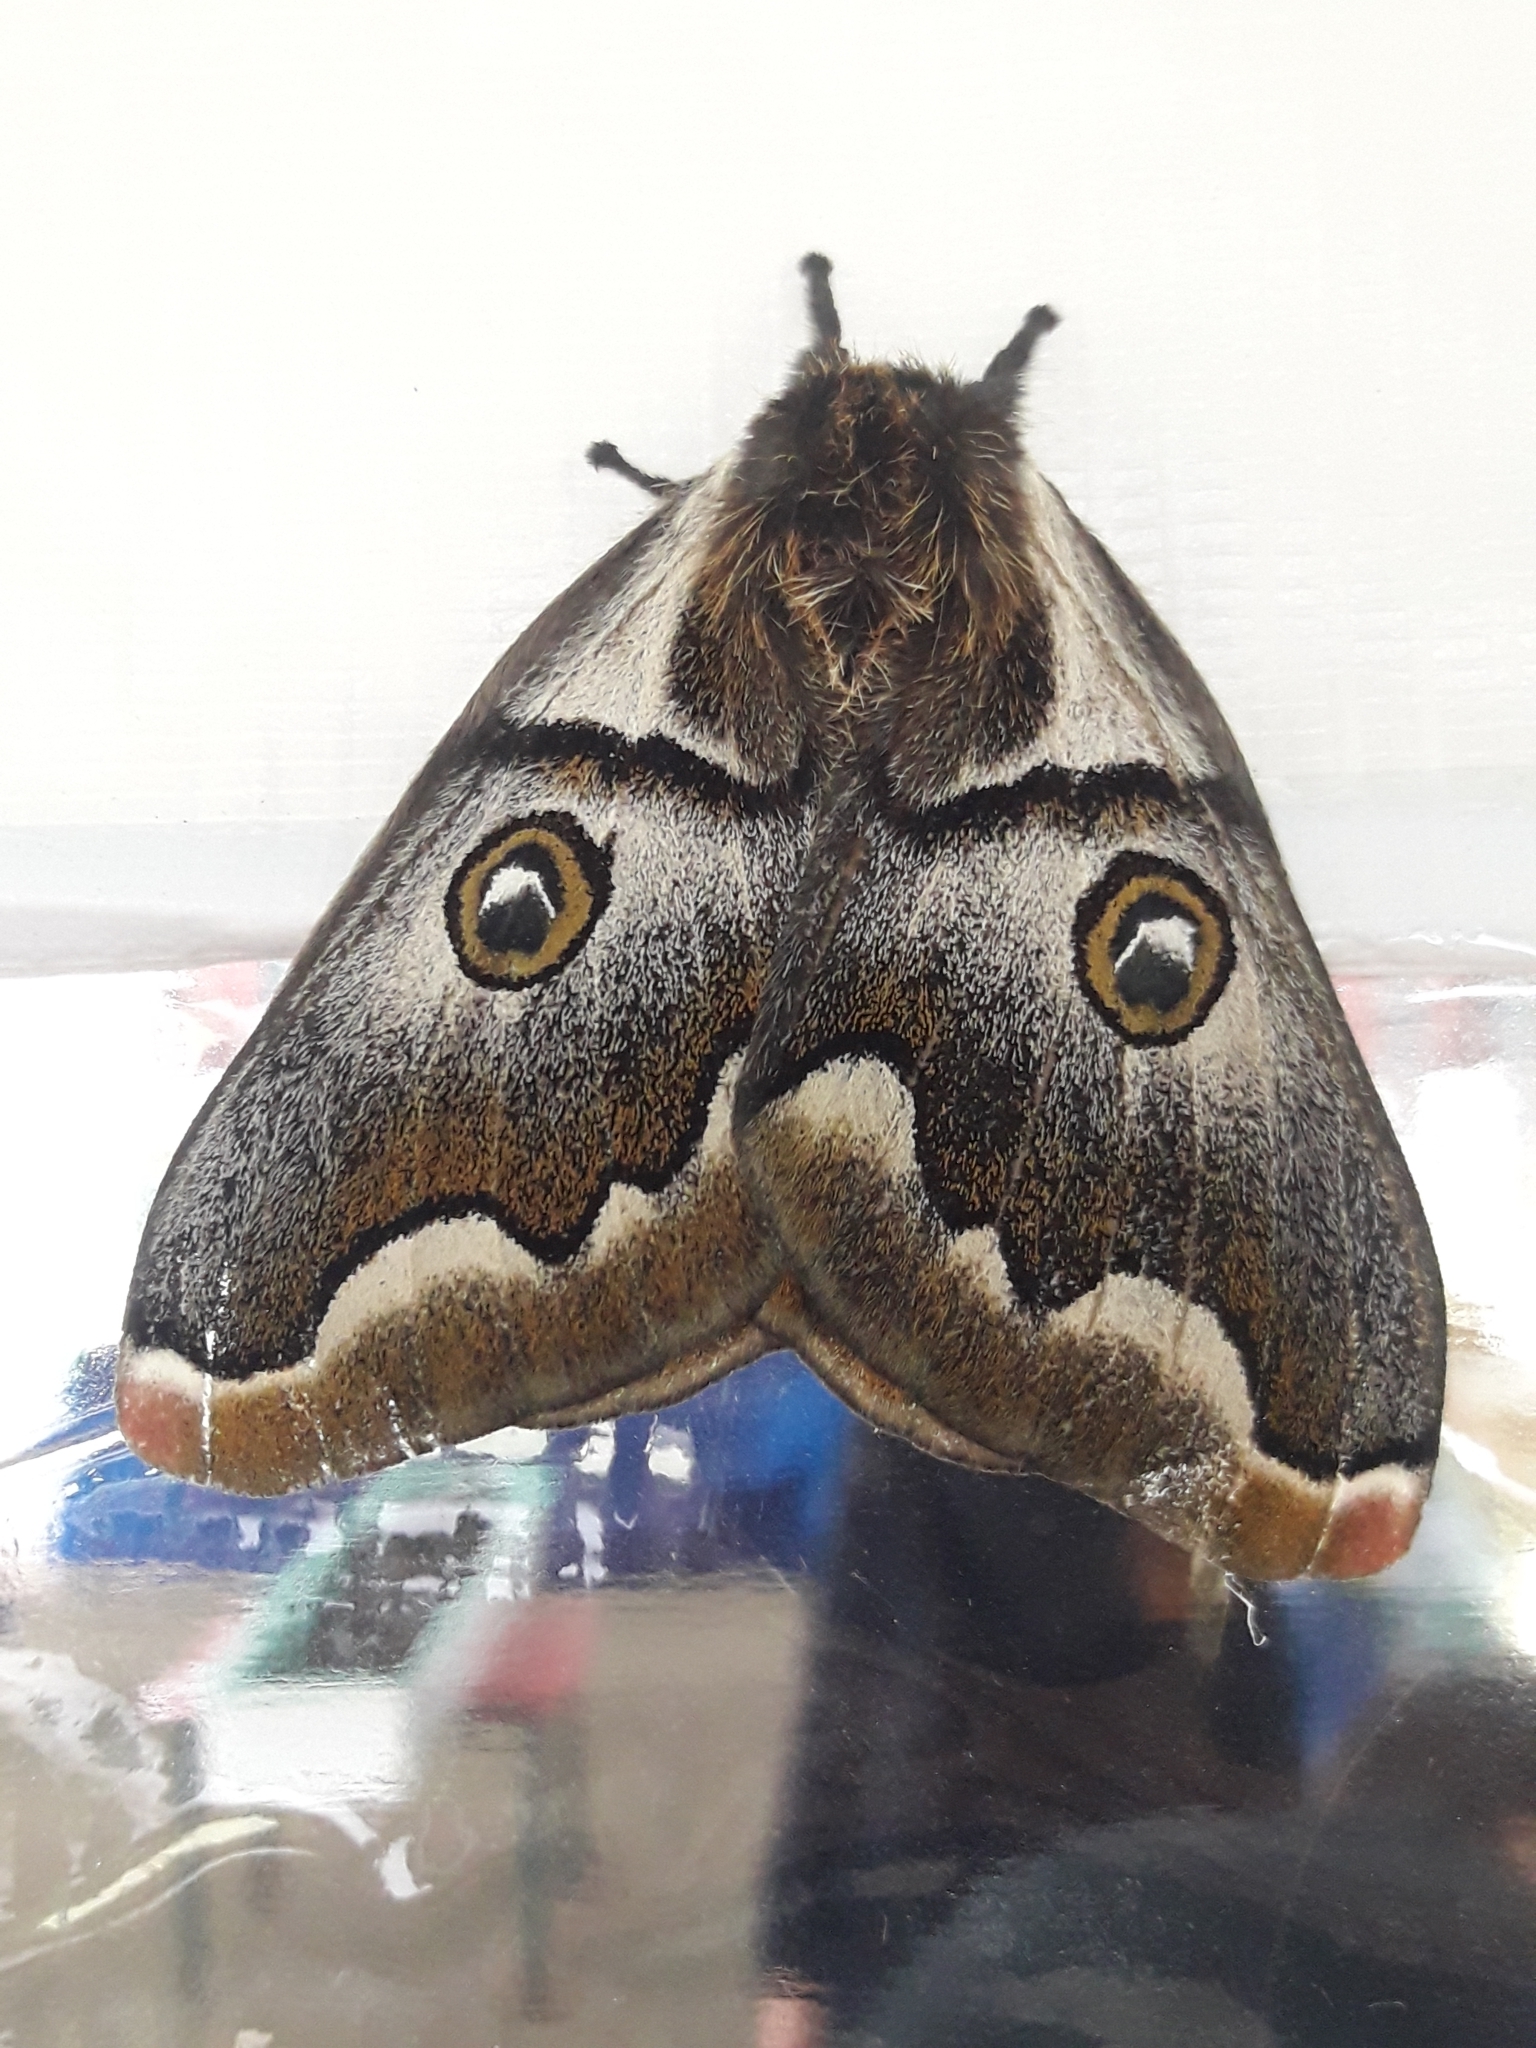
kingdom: Animalia
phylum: Arthropoda
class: Insecta
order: Lepidoptera
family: Saturniidae
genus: Polythysana
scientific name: Polythysana cinerascens
